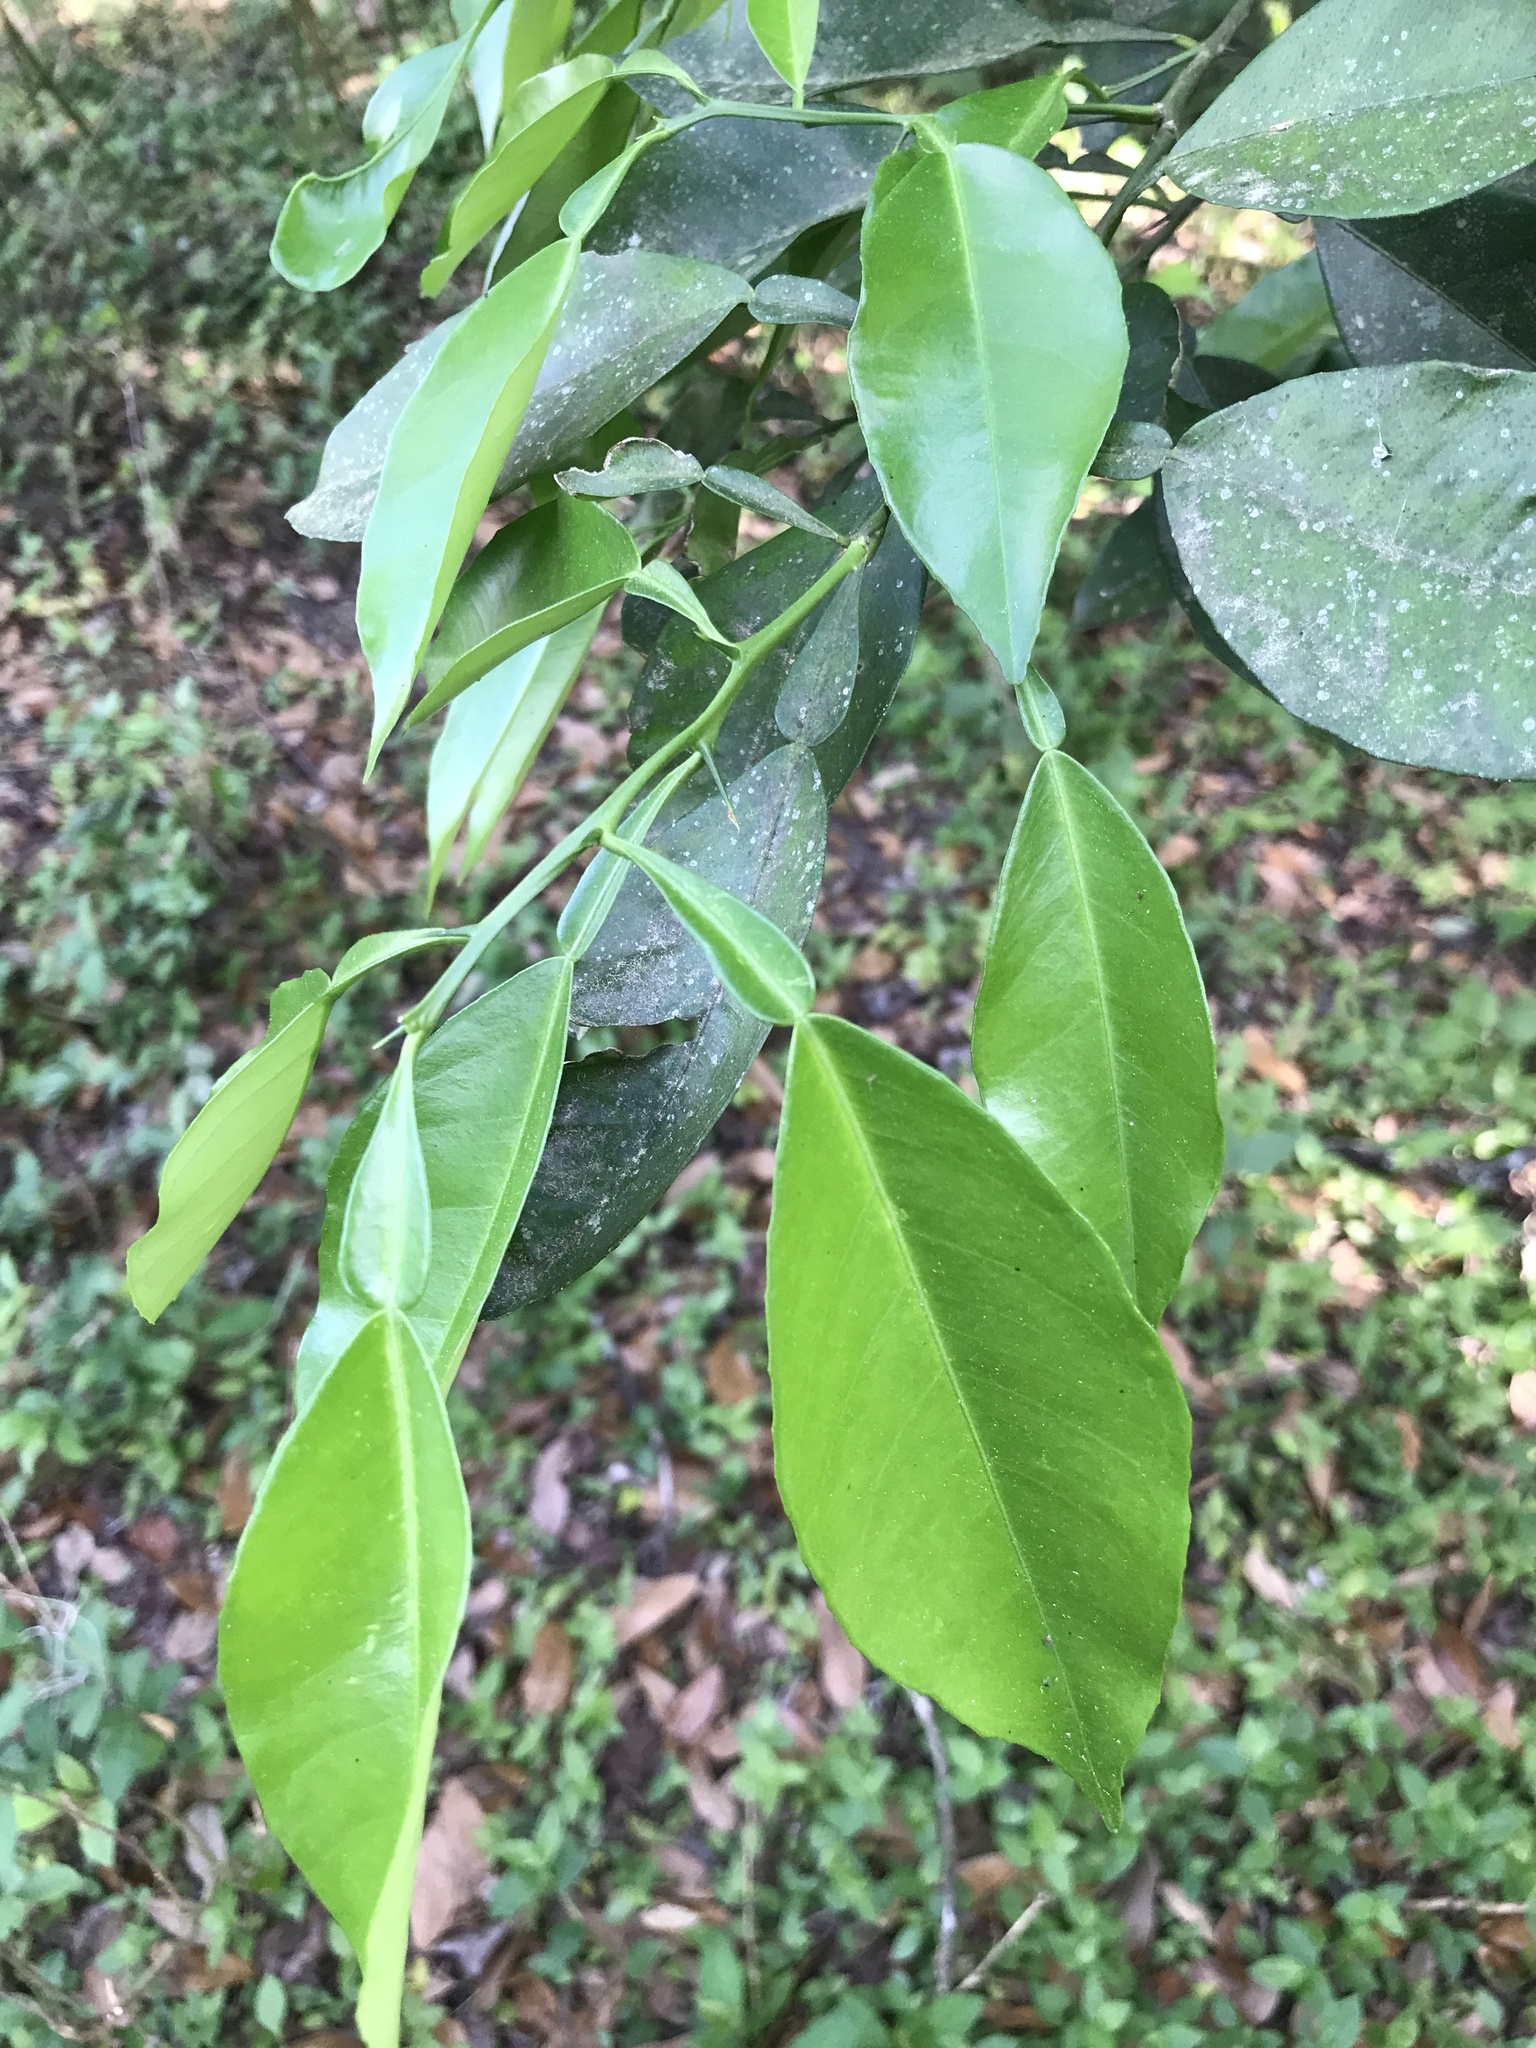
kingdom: Plantae
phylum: Tracheophyta
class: Magnoliopsida
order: Sapindales
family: Rutaceae
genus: Citrus
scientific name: Citrus aurantium
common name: Sour orange
